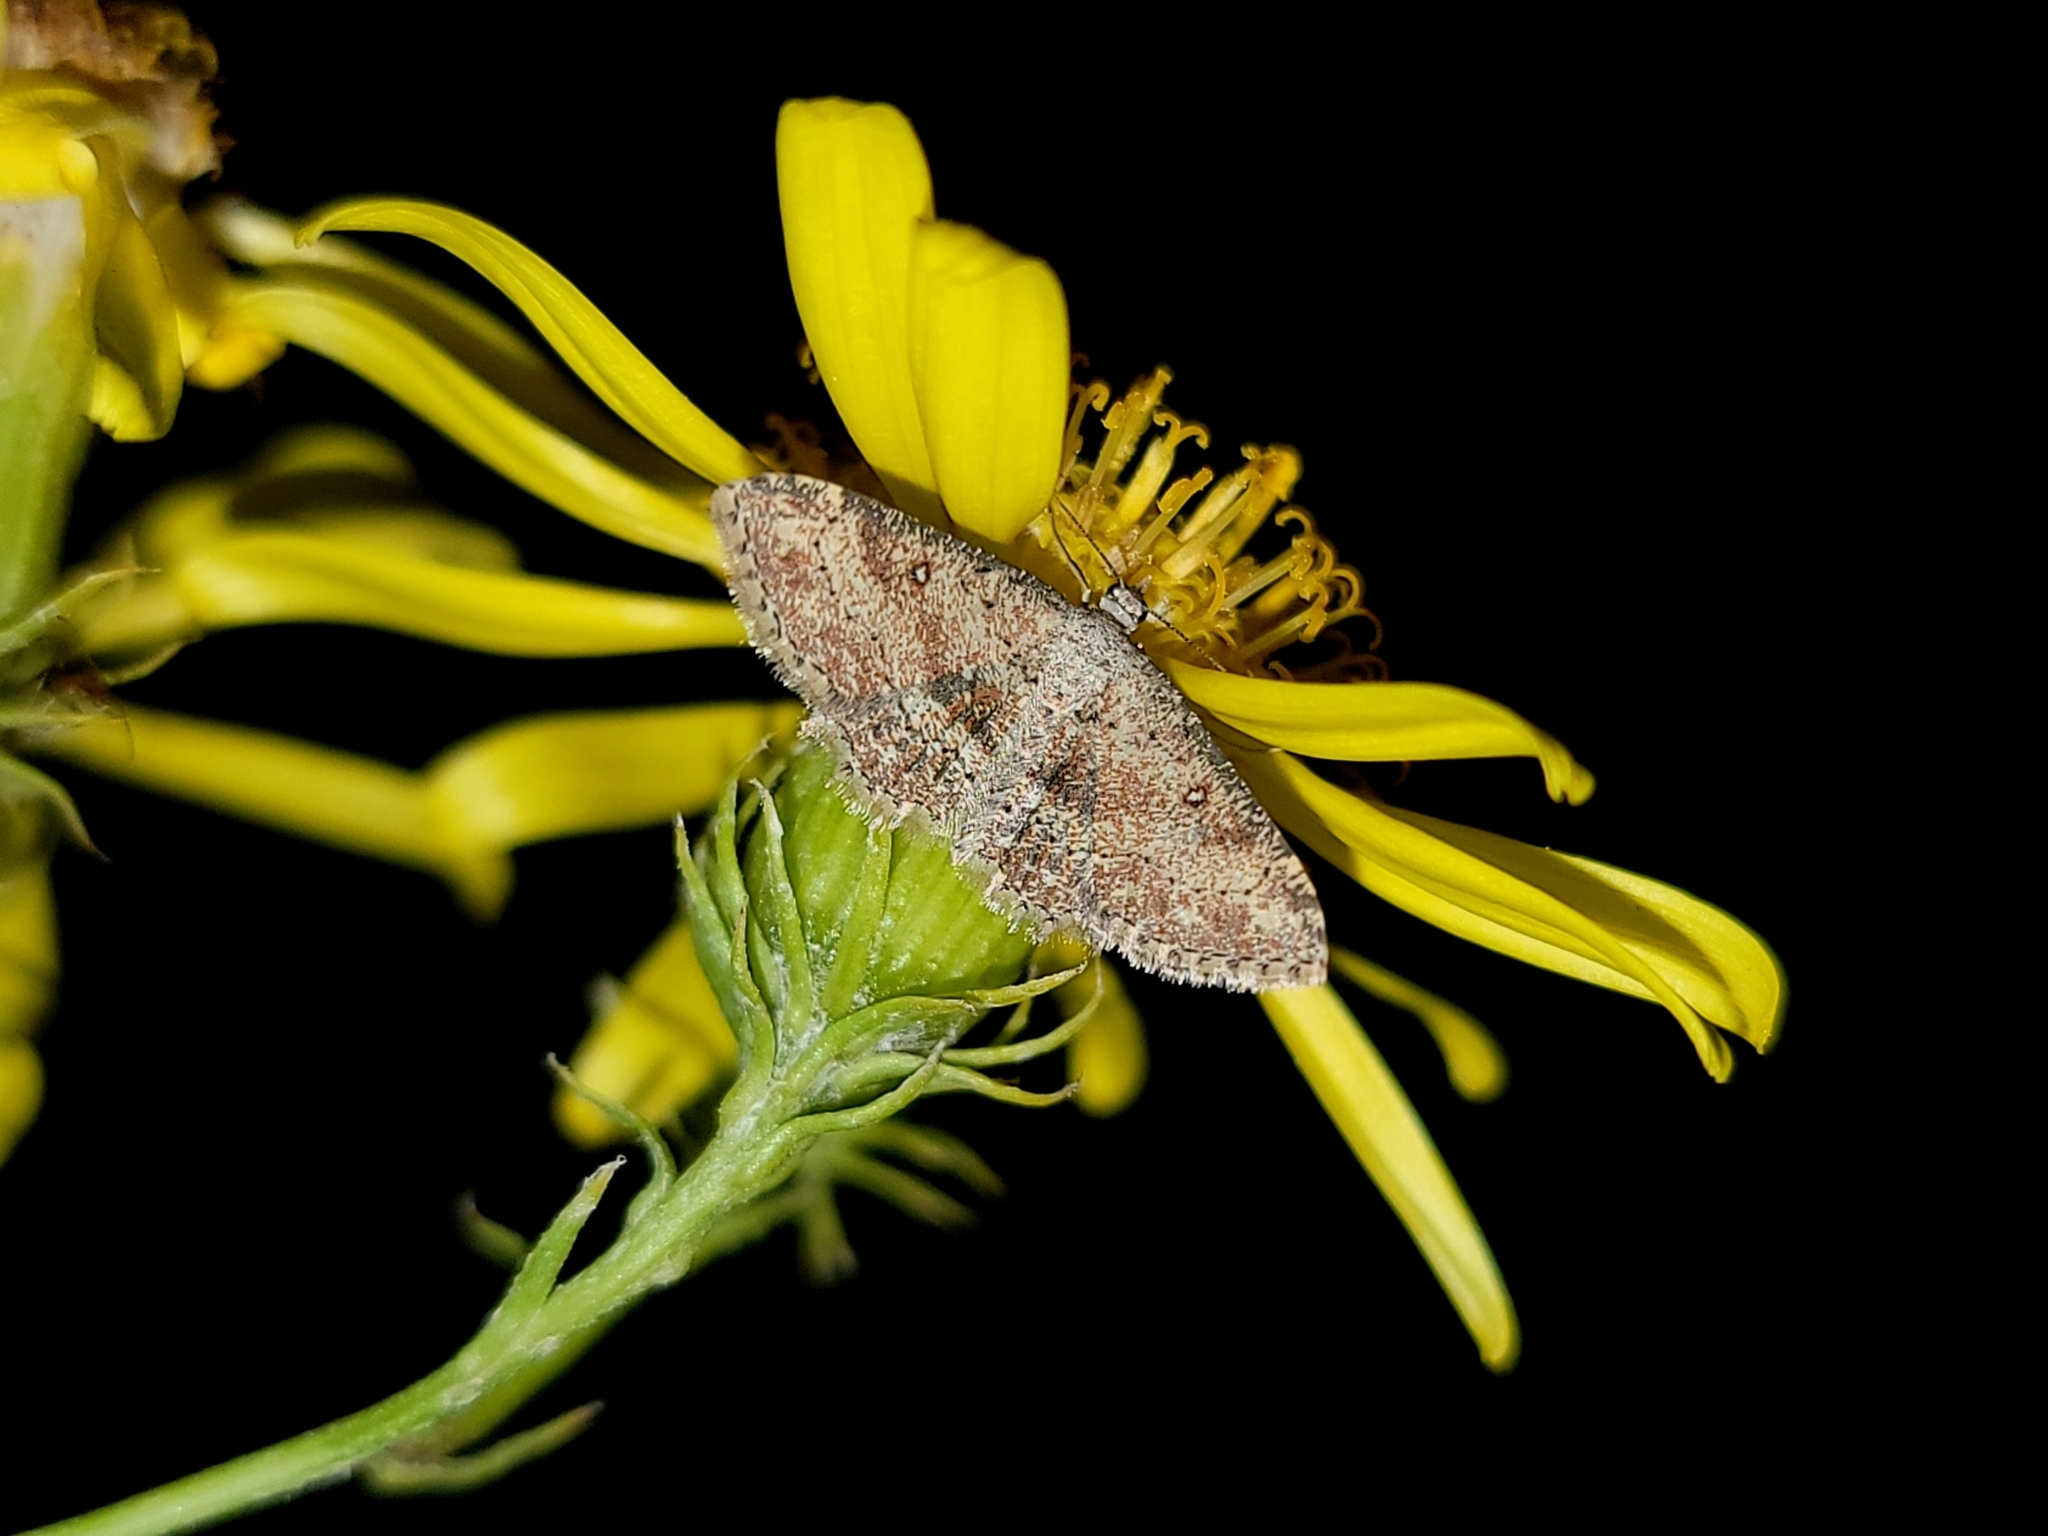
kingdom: Animalia
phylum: Arthropoda
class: Insecta
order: Lepidoptera
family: Geometridae
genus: Cyclophora
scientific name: Cyclophora nanaria
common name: Cankerworm
